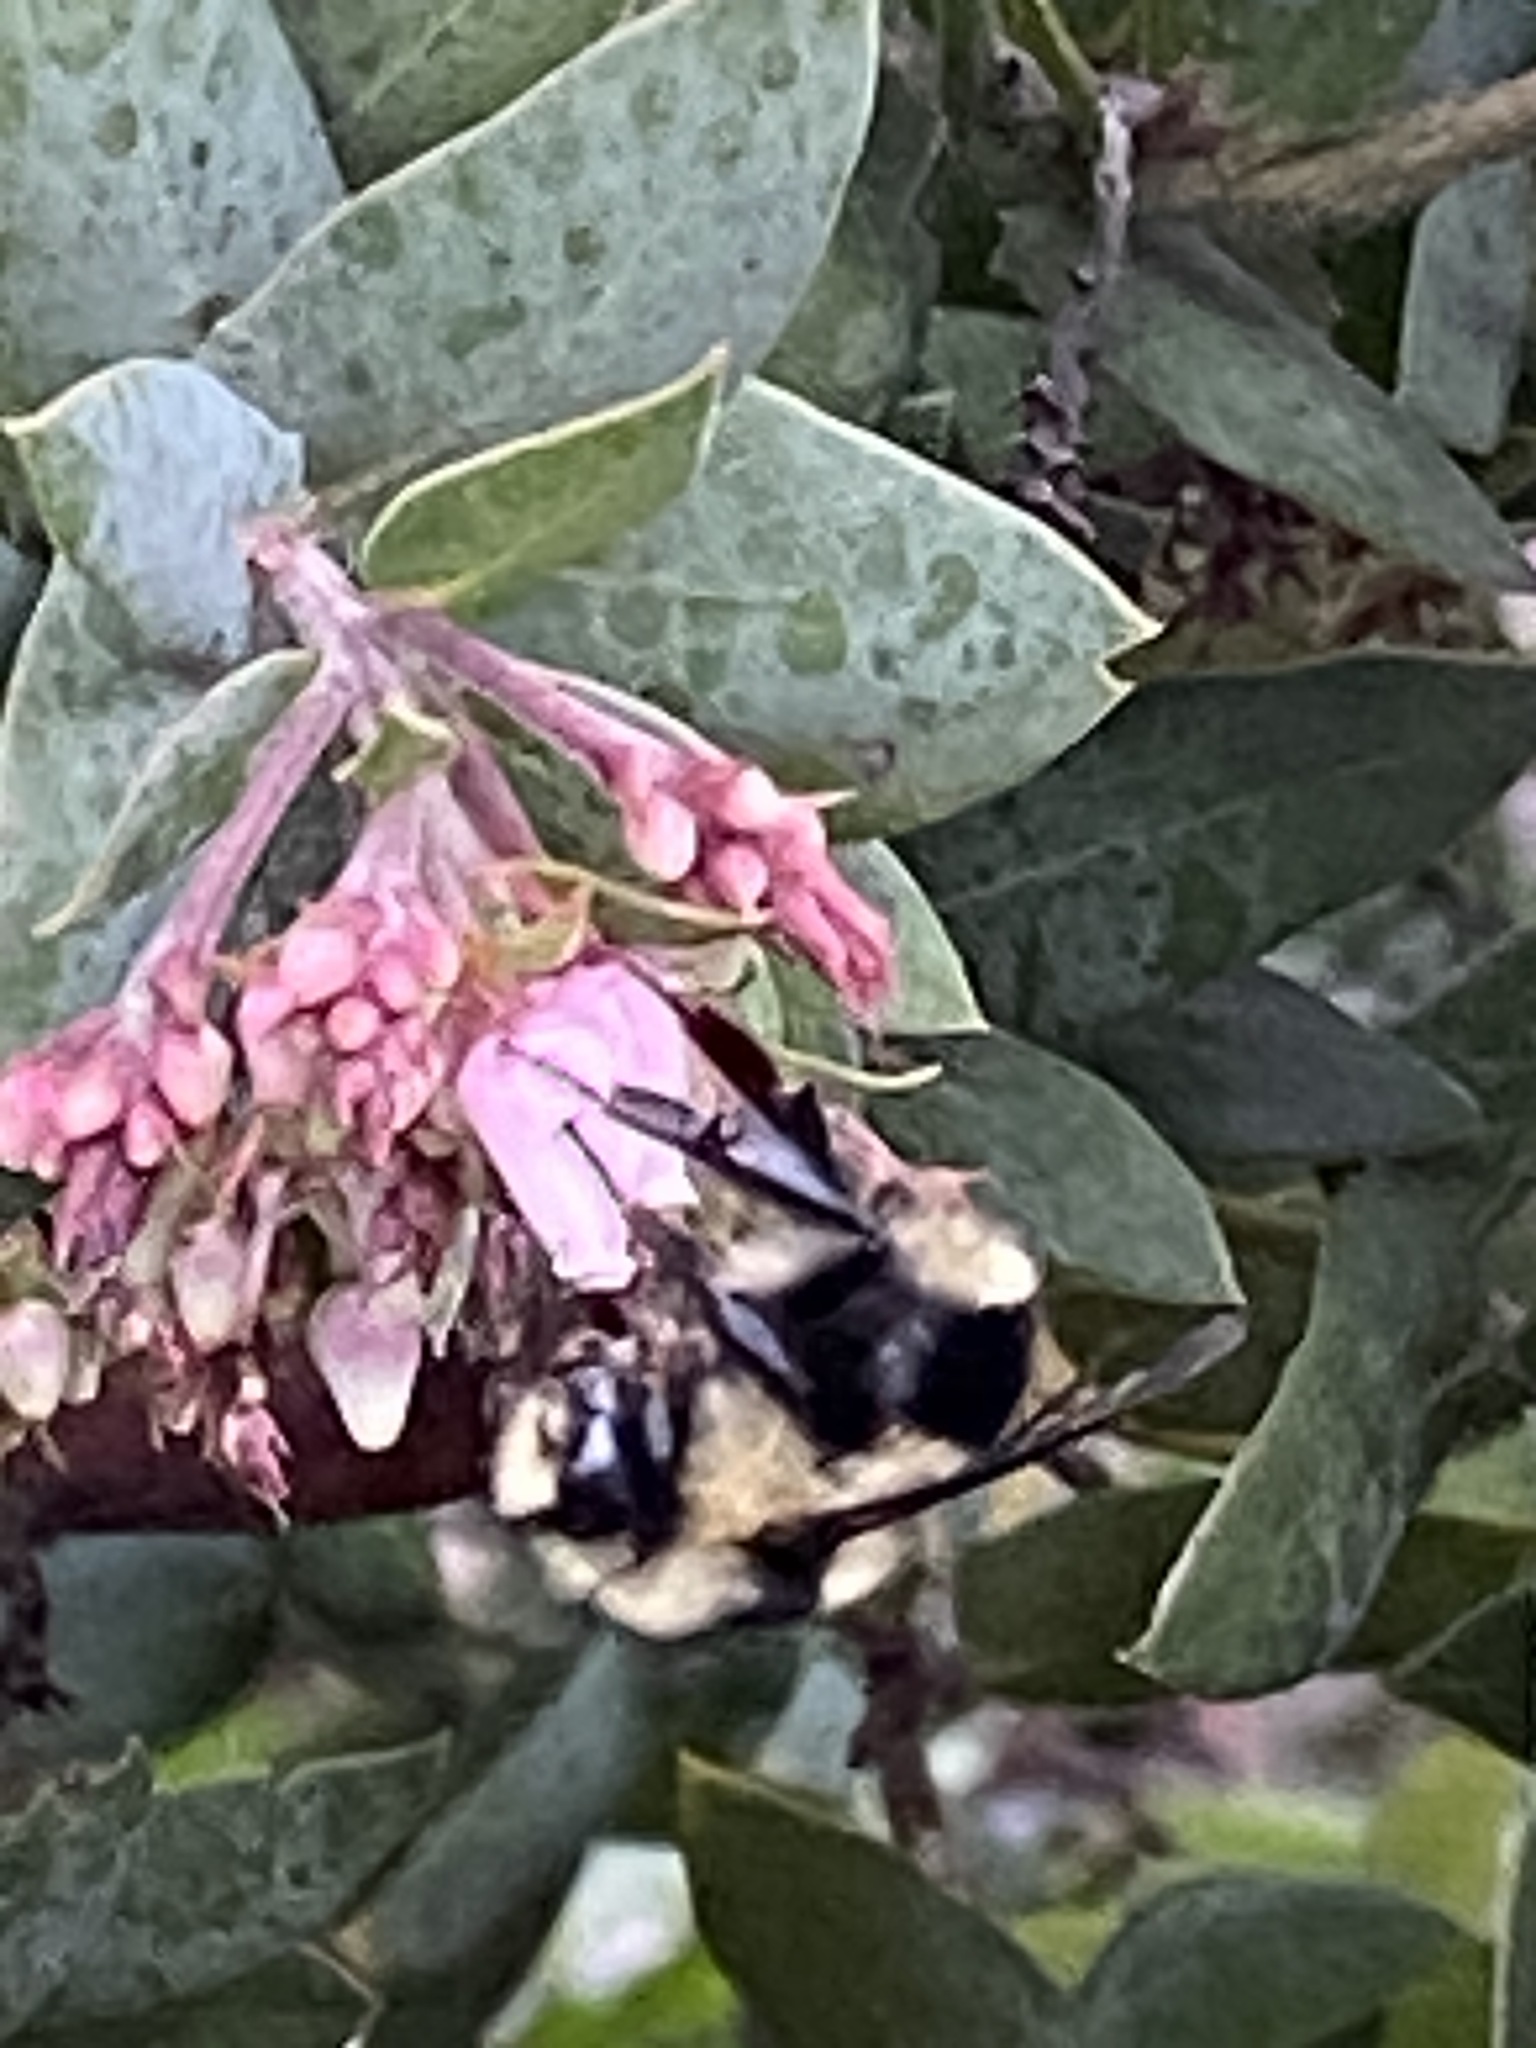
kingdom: Animalia
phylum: Arthropoda
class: Insecta
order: Hymenoptera
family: Apidae
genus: Bombus
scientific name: Bombus melanopygus
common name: Black tail bumble bee
